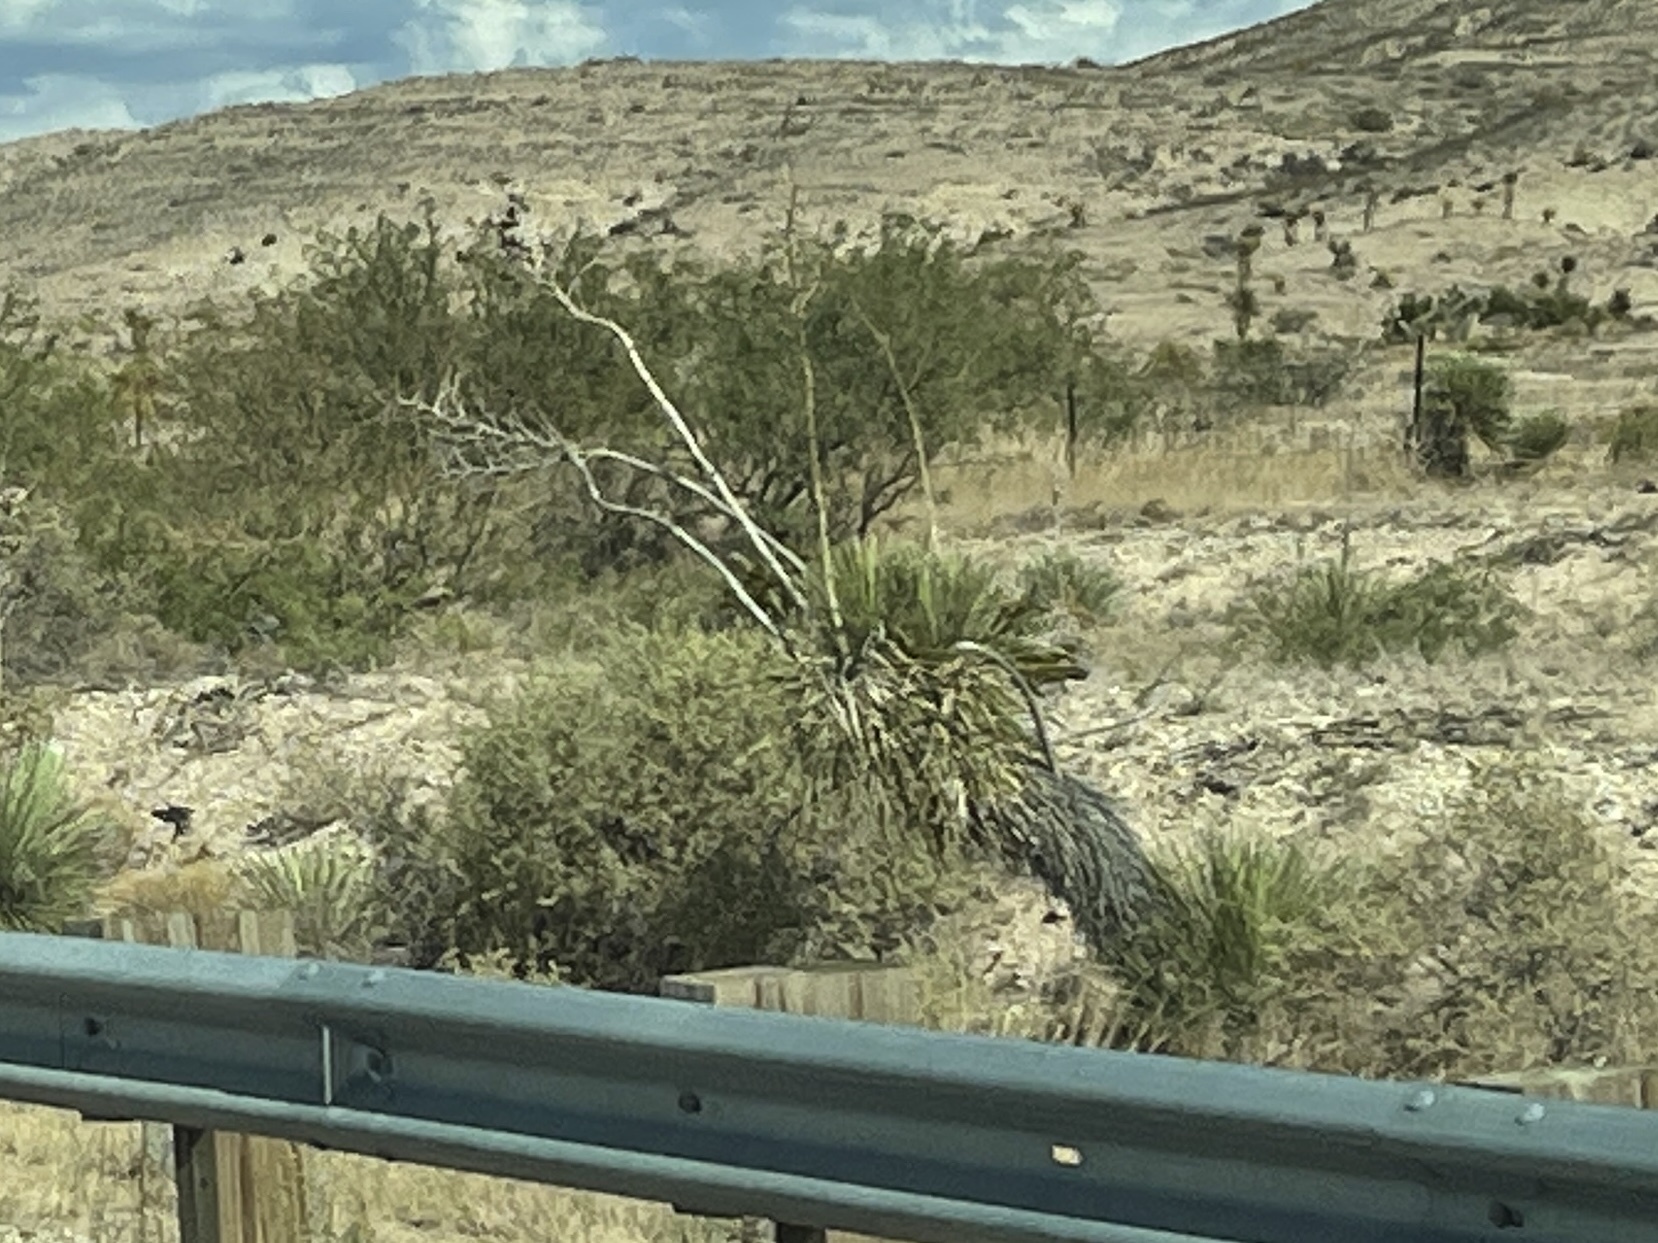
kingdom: Plantae
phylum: Tracheophyta
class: Liliopsida
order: Asparagales
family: Asparagaceae
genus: Yucca
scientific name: Yucca elata
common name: Palmella
